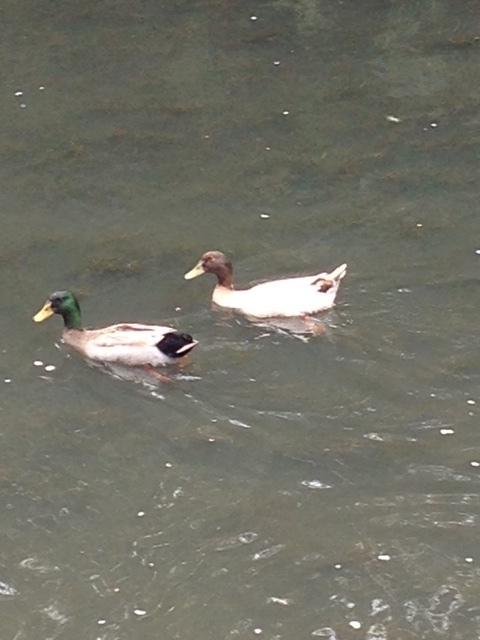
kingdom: Animalia
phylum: Chordata
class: Aves
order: Anseriformes
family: Anatidae
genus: Anas
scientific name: Anas platyrhynchos
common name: Mallard
